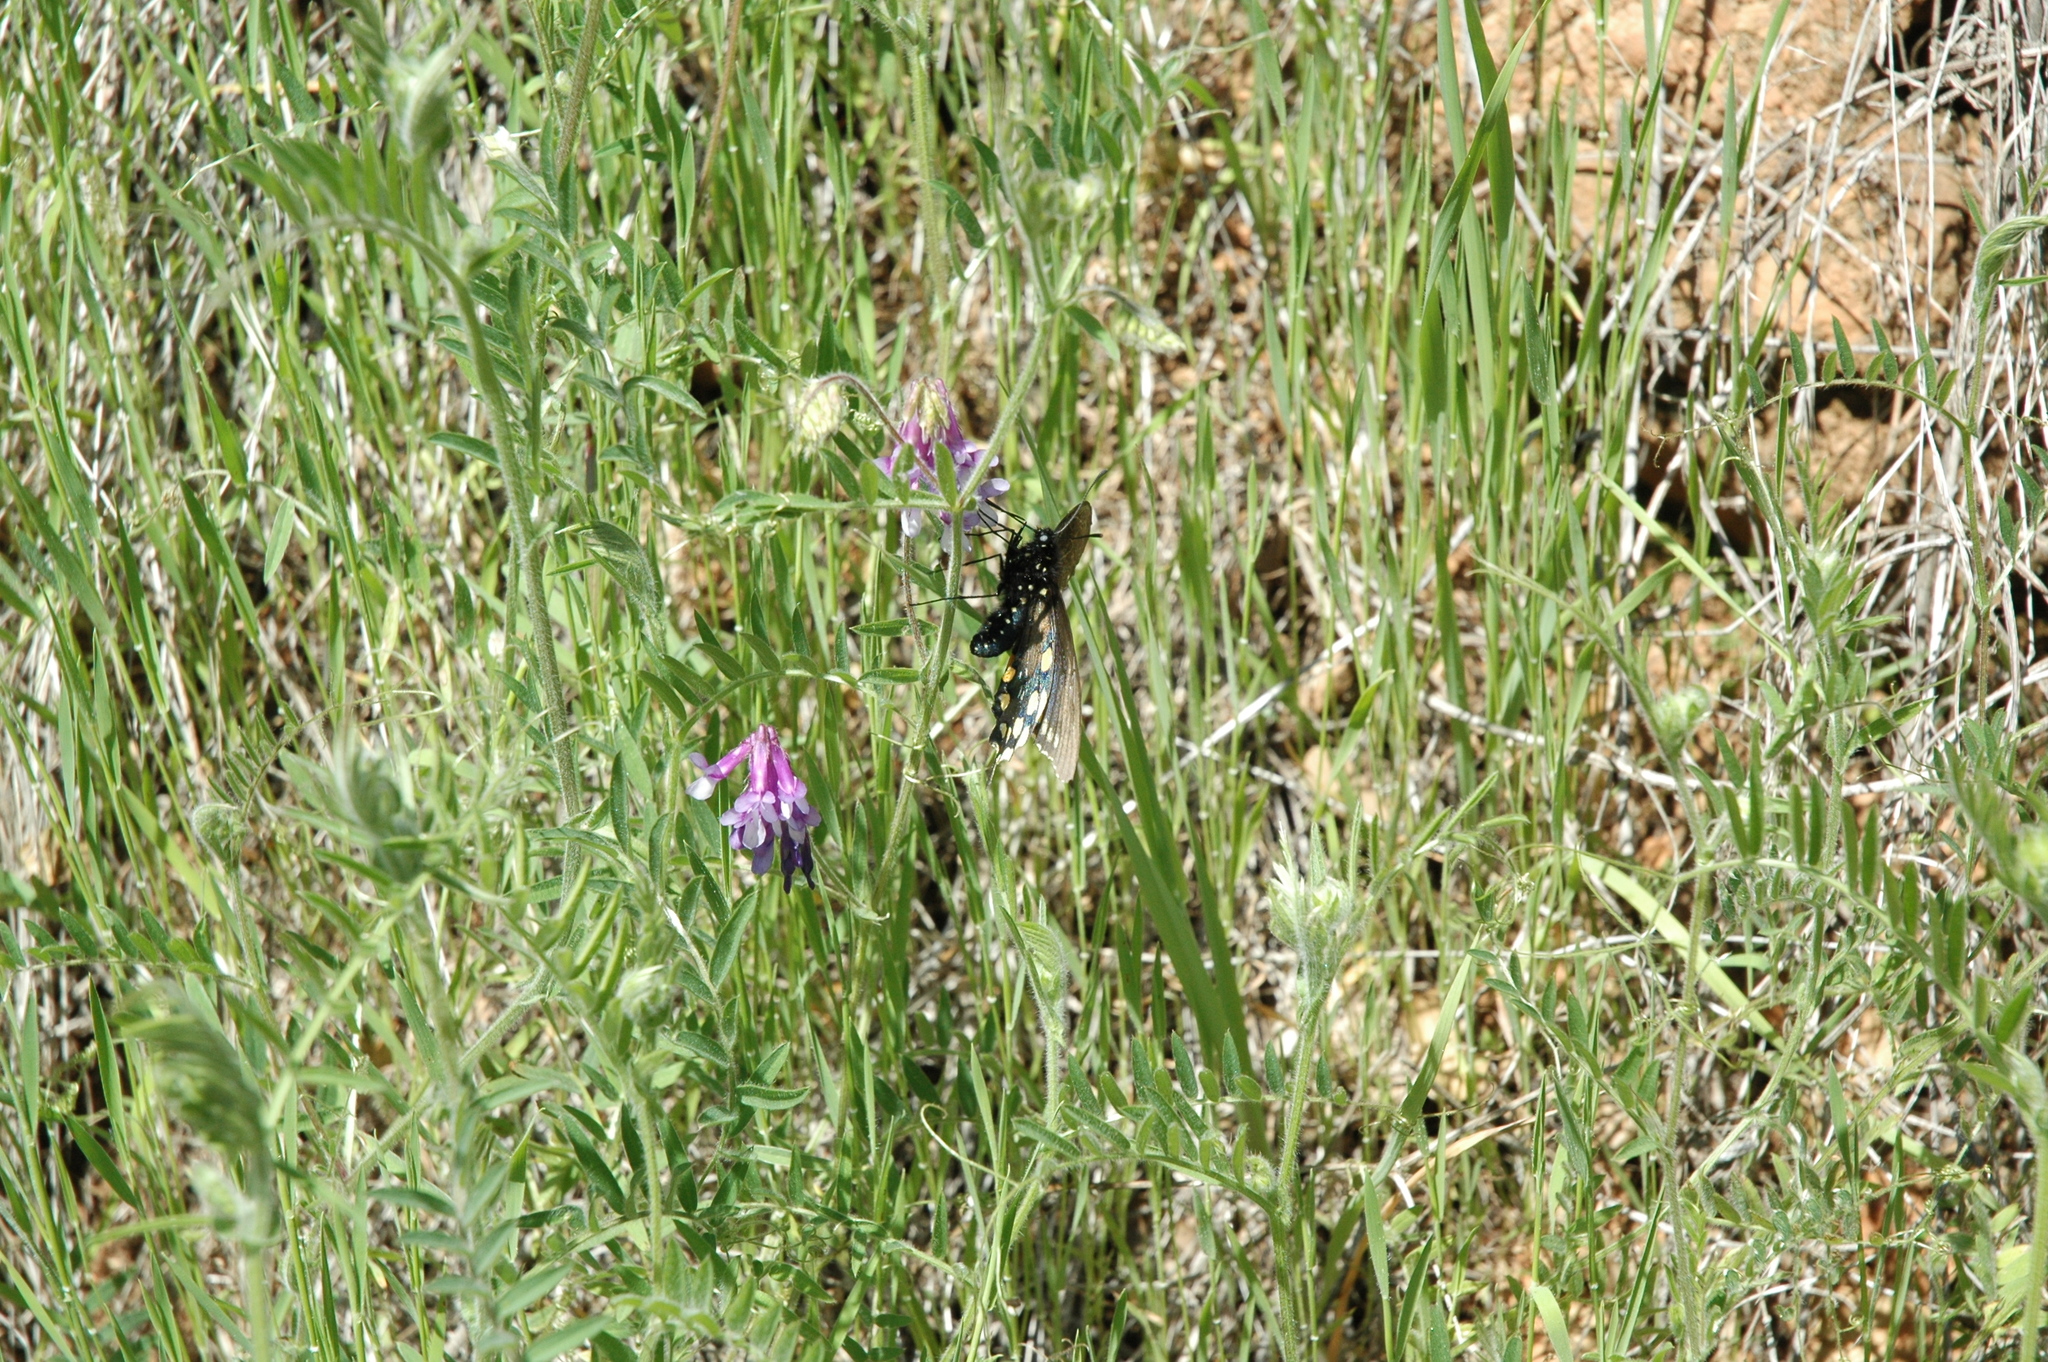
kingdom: Animalia
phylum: Arthropoda
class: Insecta
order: Lepidoptera
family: Papilionidae
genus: Battus
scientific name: Battus philenor
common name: Pipevine swallowtail
